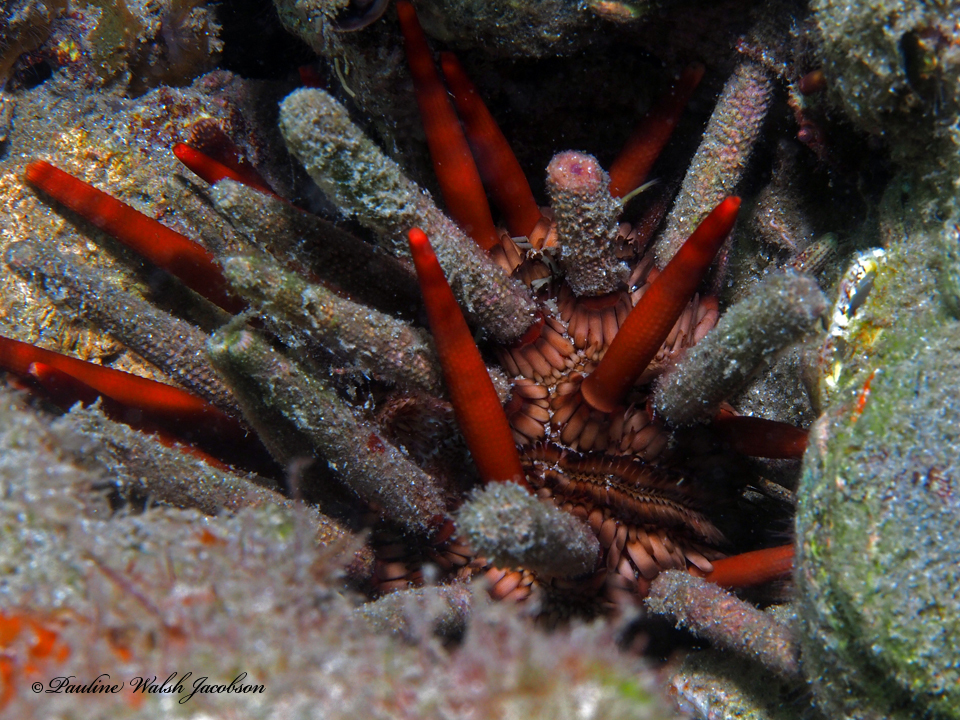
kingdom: Animalia
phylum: Echinodermata
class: Echinoidea
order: Cidaroida
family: Cidaridae
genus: Eucidaris
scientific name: Eucidaris tribuloides
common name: Slate pencil urchin
